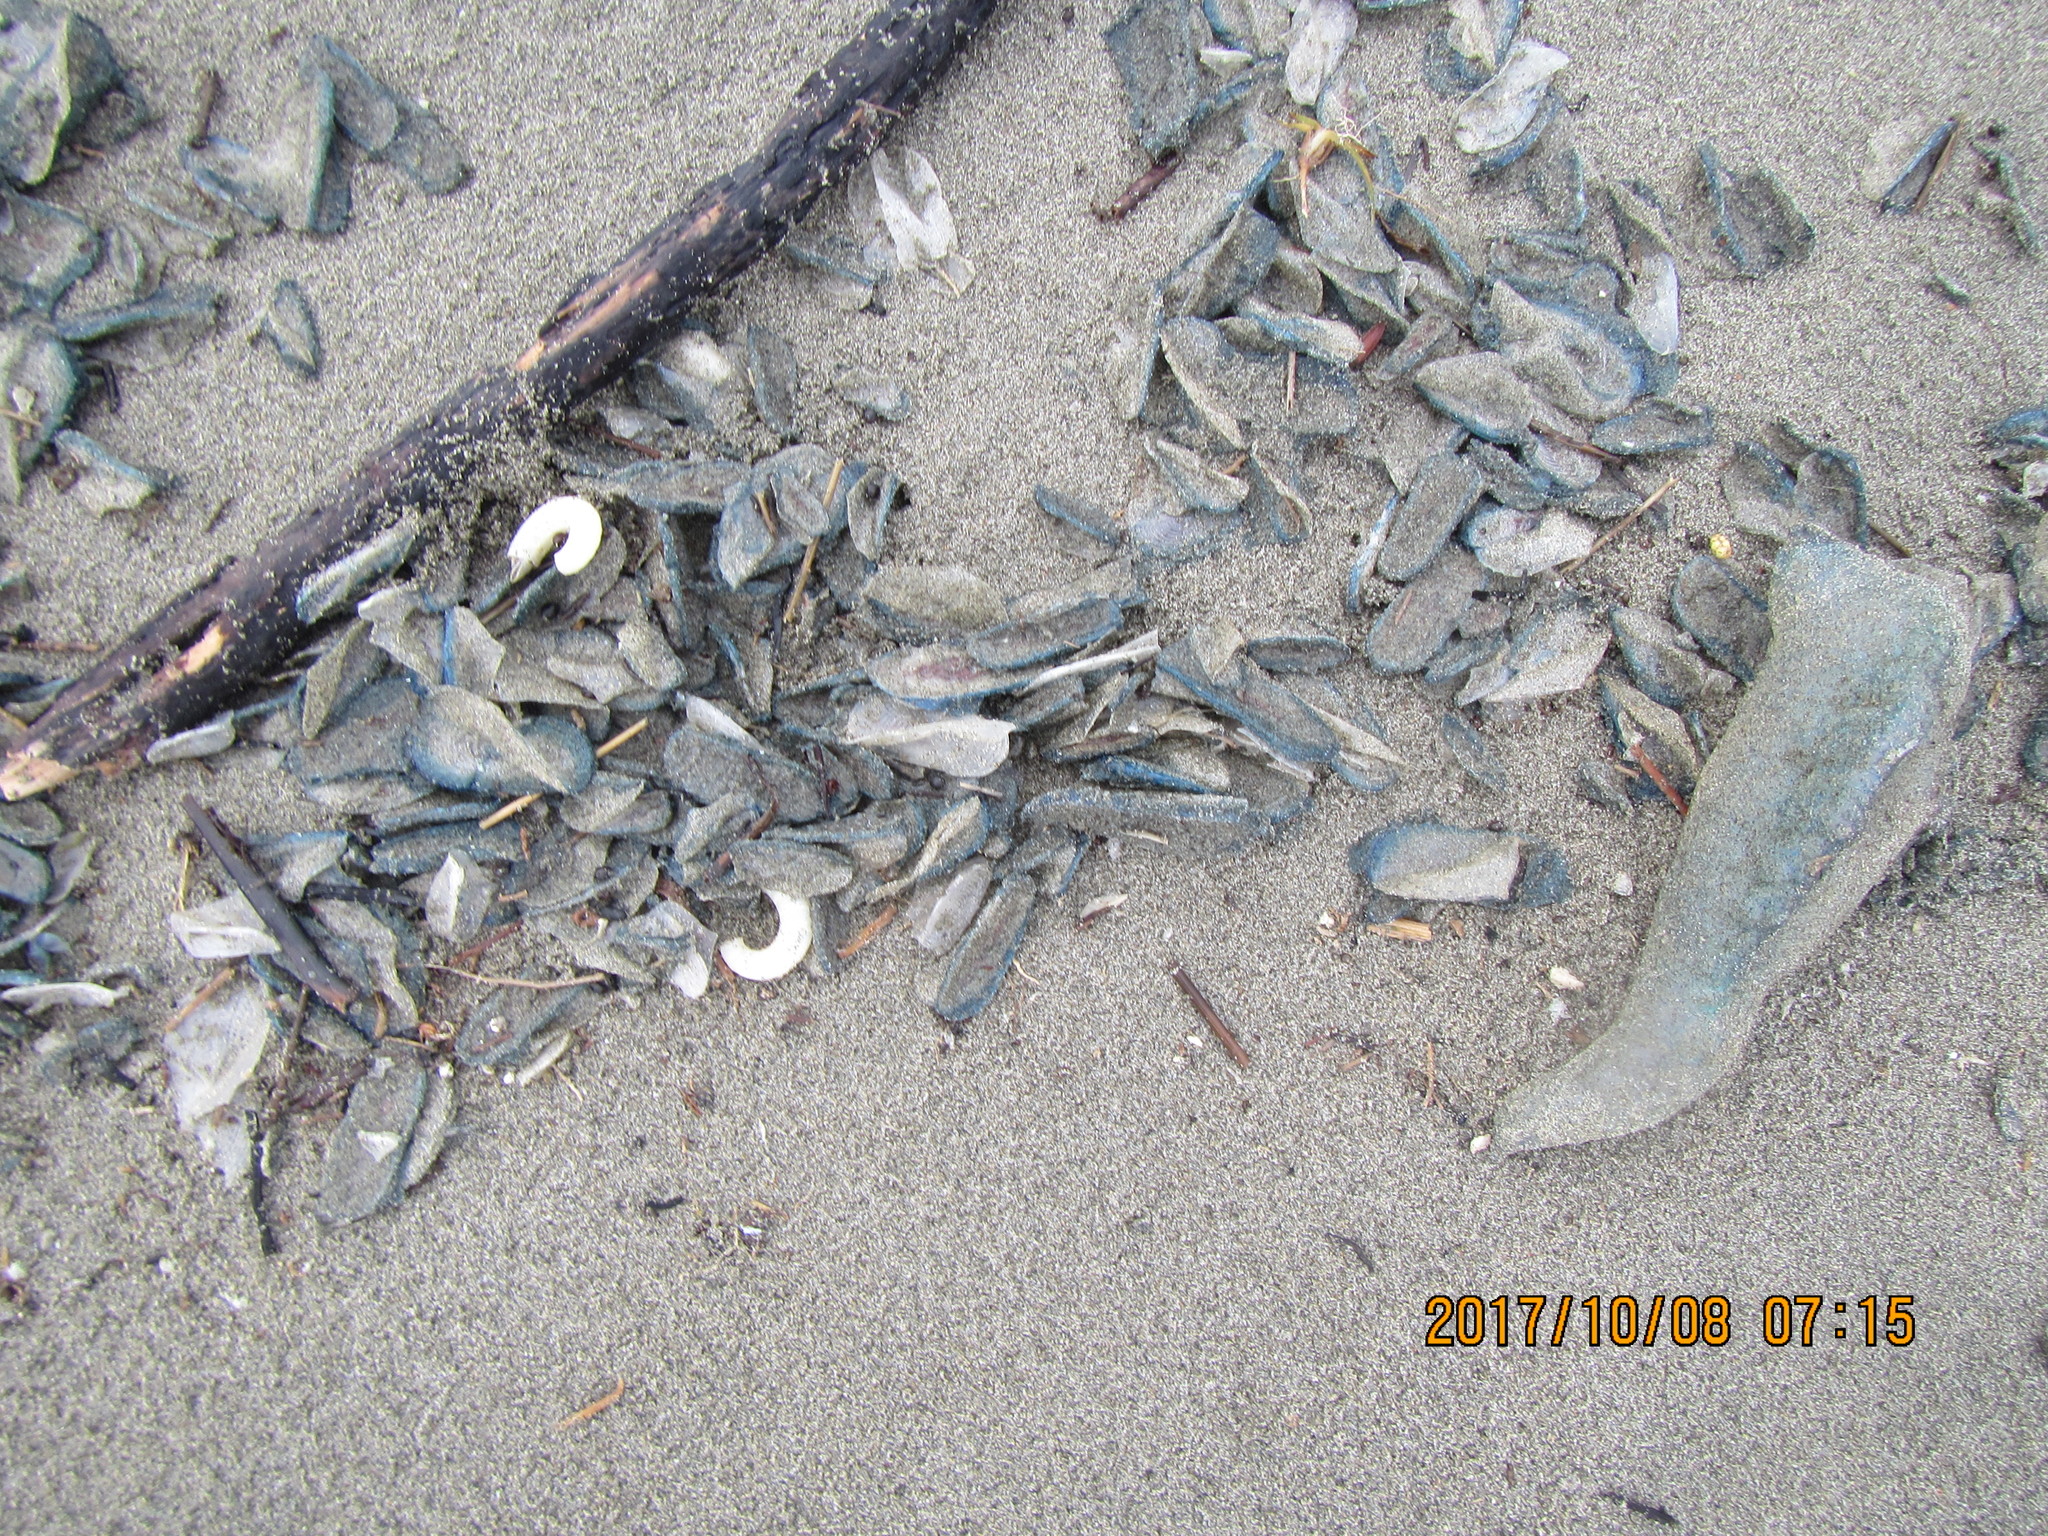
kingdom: Animalia
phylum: Cnidaria
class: Hydrozoa
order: Anthoathecata
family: Porpitidae
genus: Velella
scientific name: Velella velella
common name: By-the-wind-sailor
